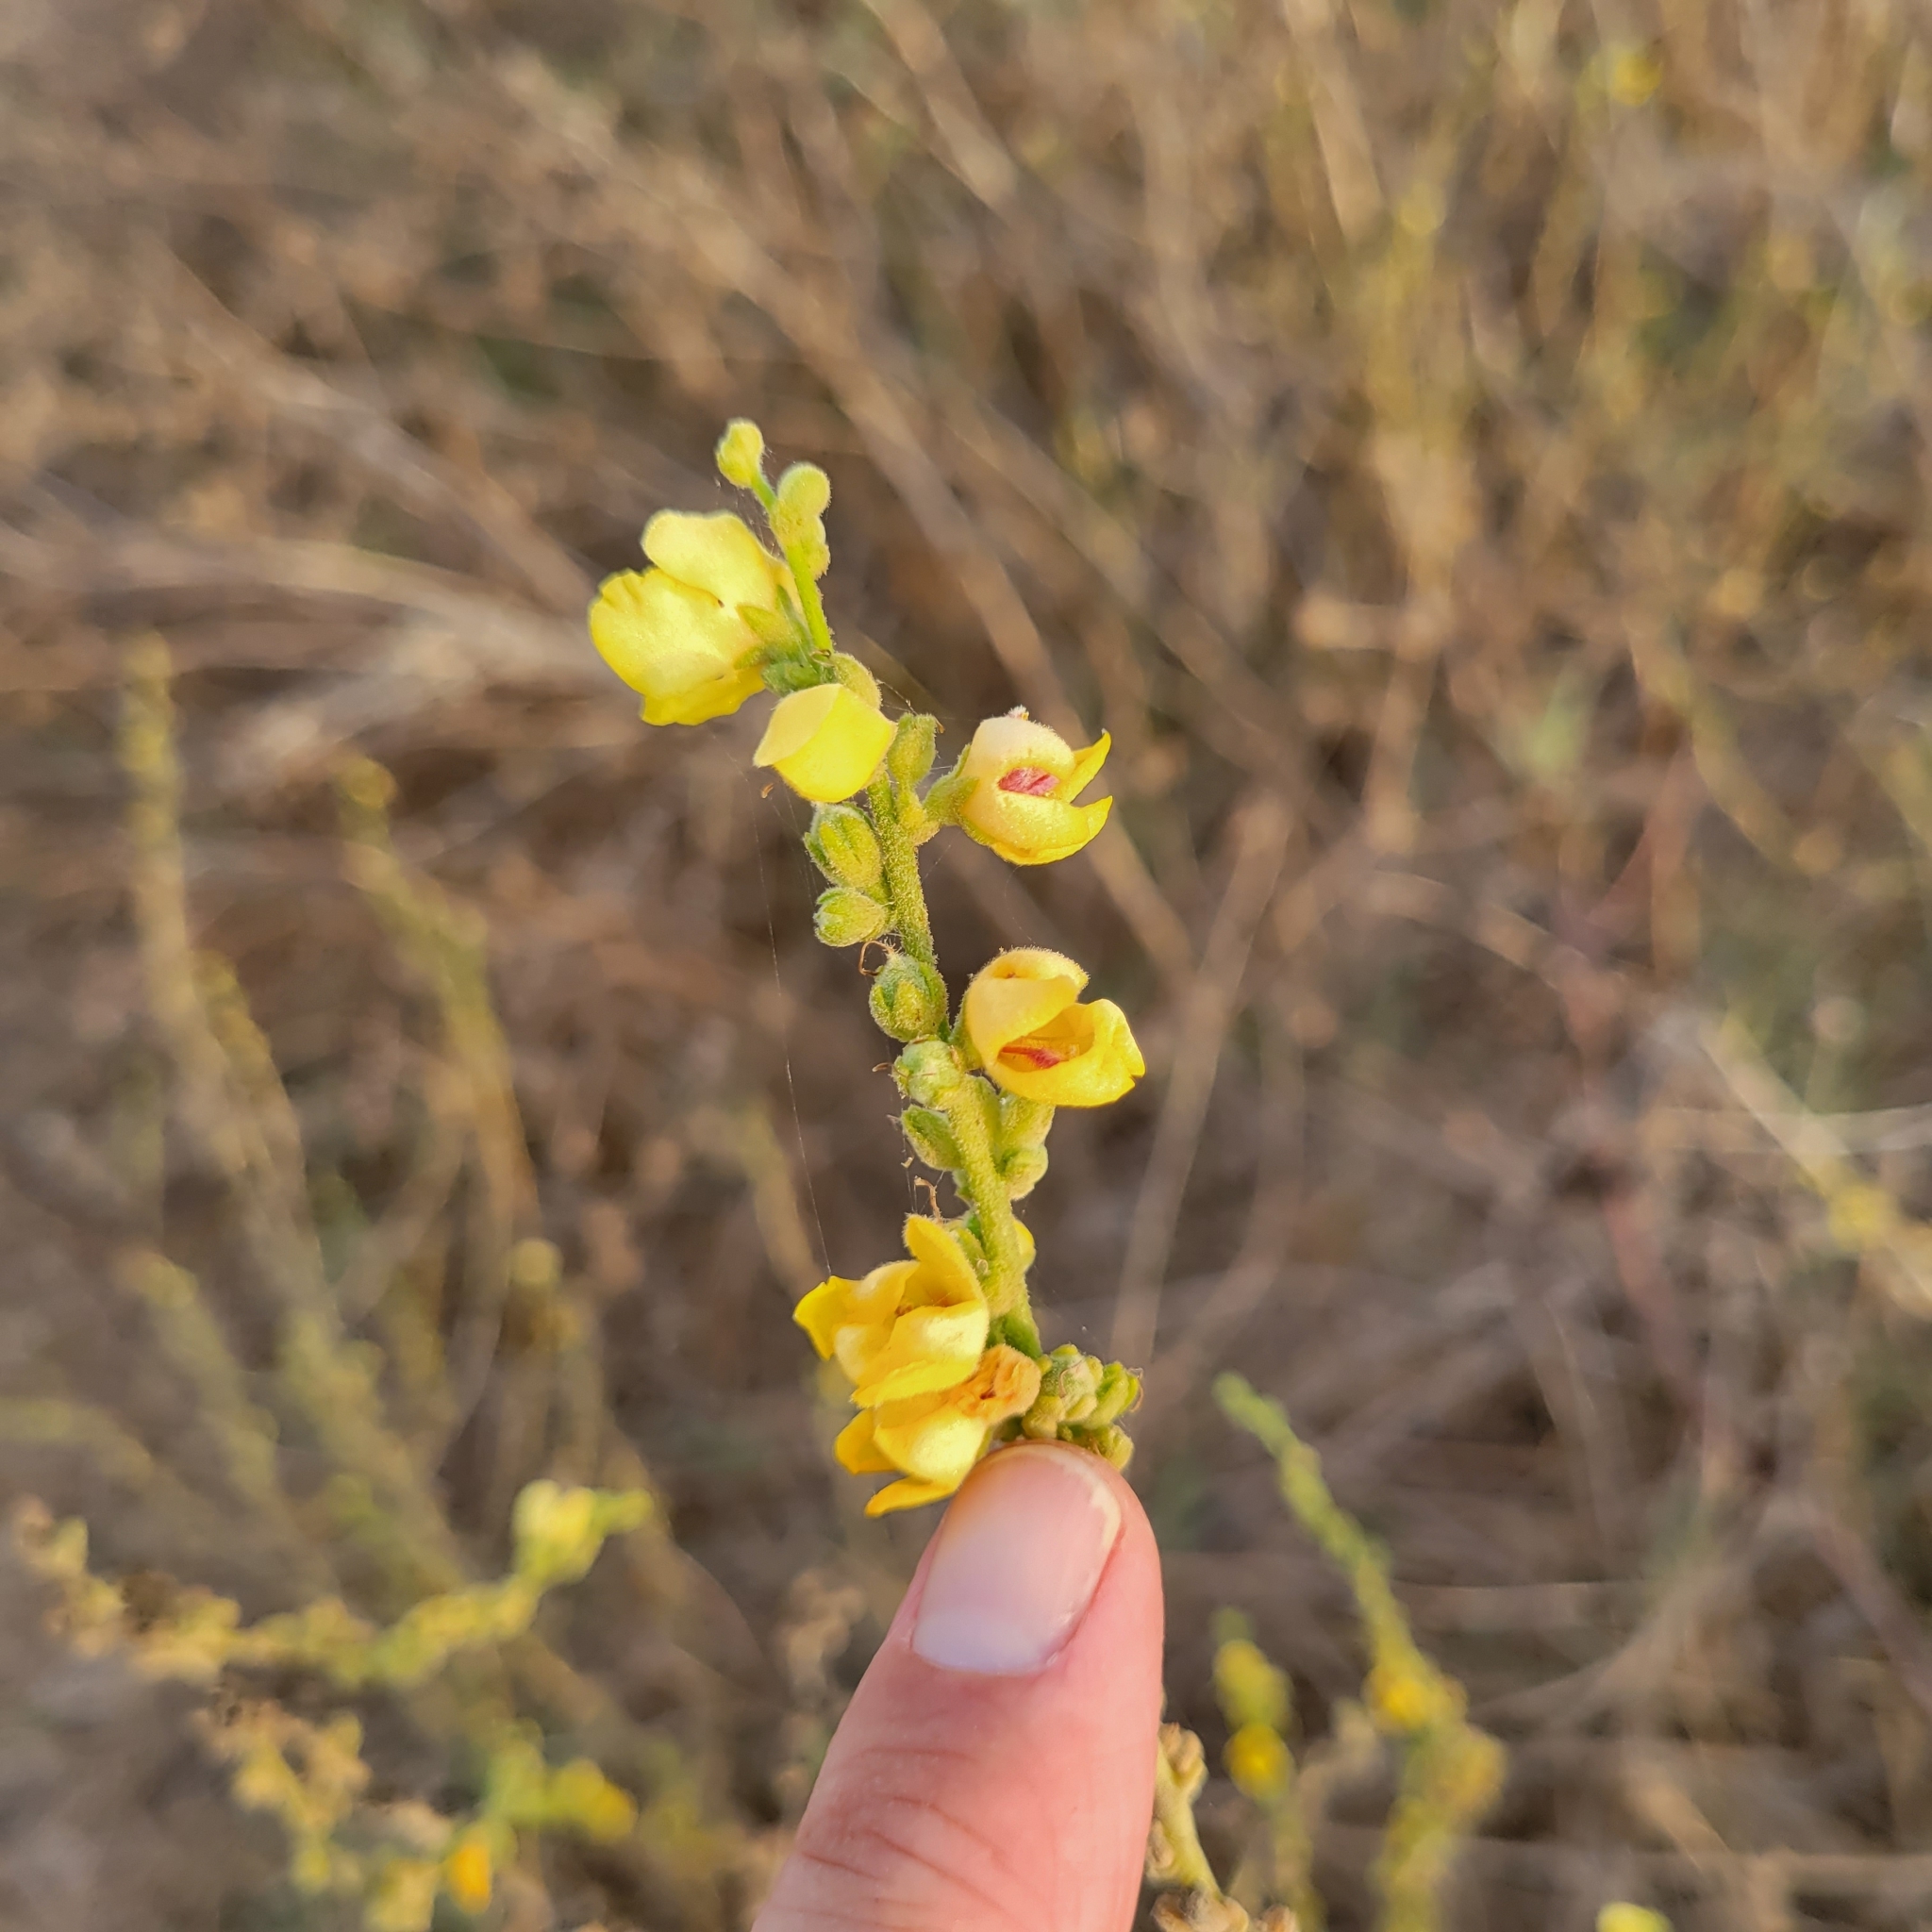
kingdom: Plantae
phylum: Tracheophyta
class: Magnoliopsida
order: Lamiales
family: Scrophulariaceae
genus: Verbascum
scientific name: Verbascum sinuatum
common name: Wavyleaf mullein
